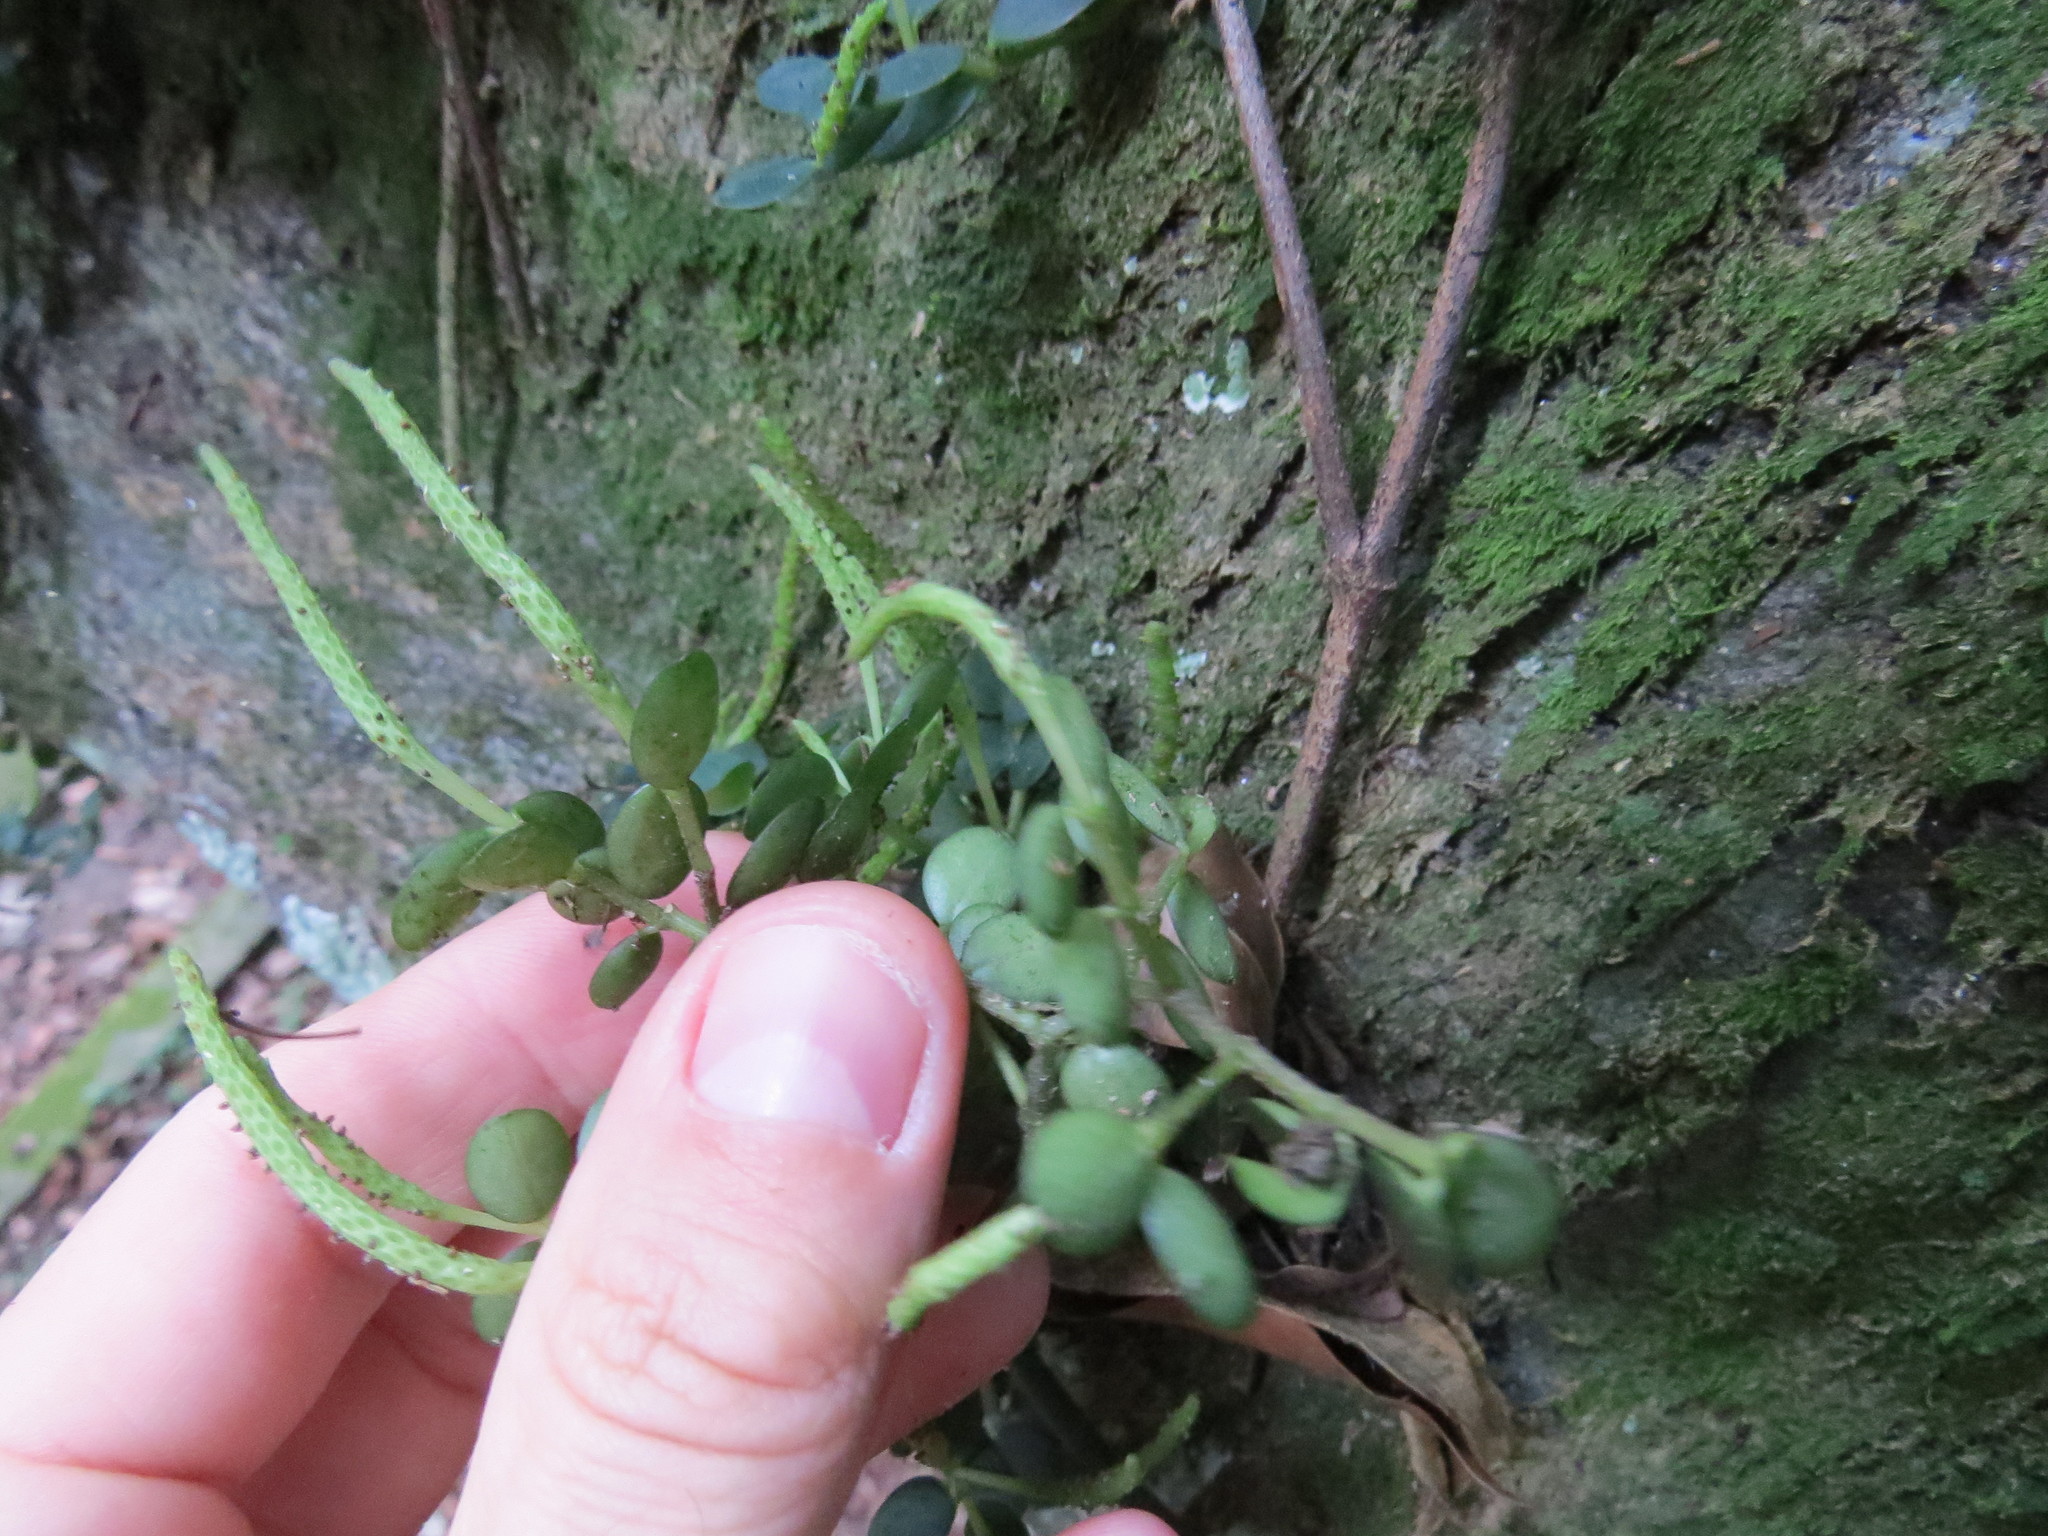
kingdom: Plantae
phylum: Tracheophyta
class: Magnoliopsida
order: Piperales
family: Piperaceae
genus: Peperomia
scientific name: Peperomia catharinae
